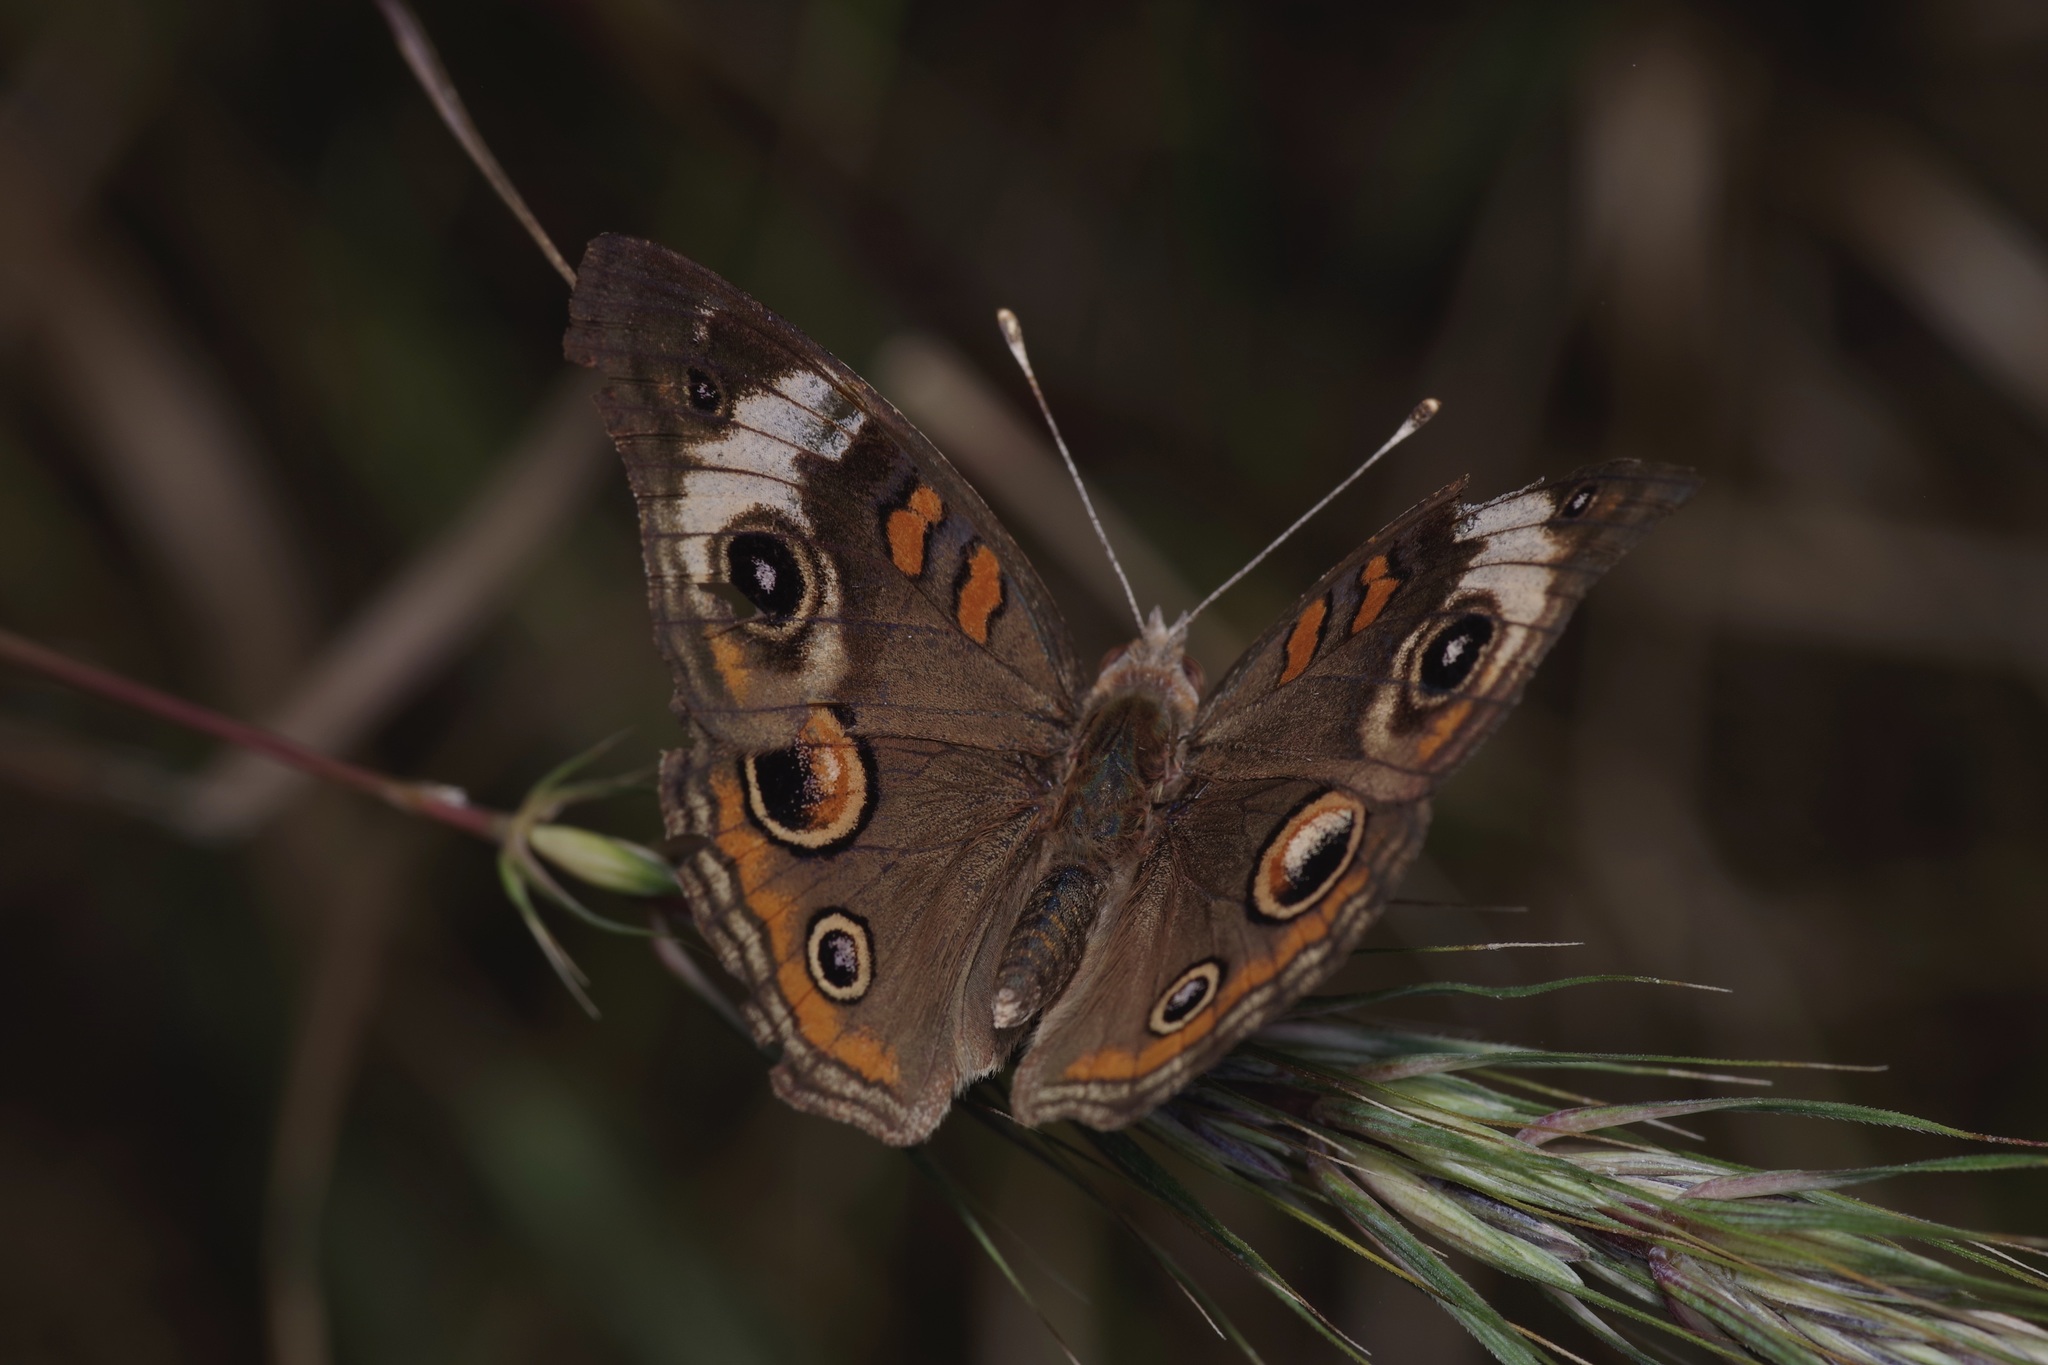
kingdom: Animalia
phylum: Arthropoda
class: Insecta
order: Lepidoptera
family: Nymphalidae
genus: Junonia
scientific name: Junonia coenia
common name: Common buckeye
